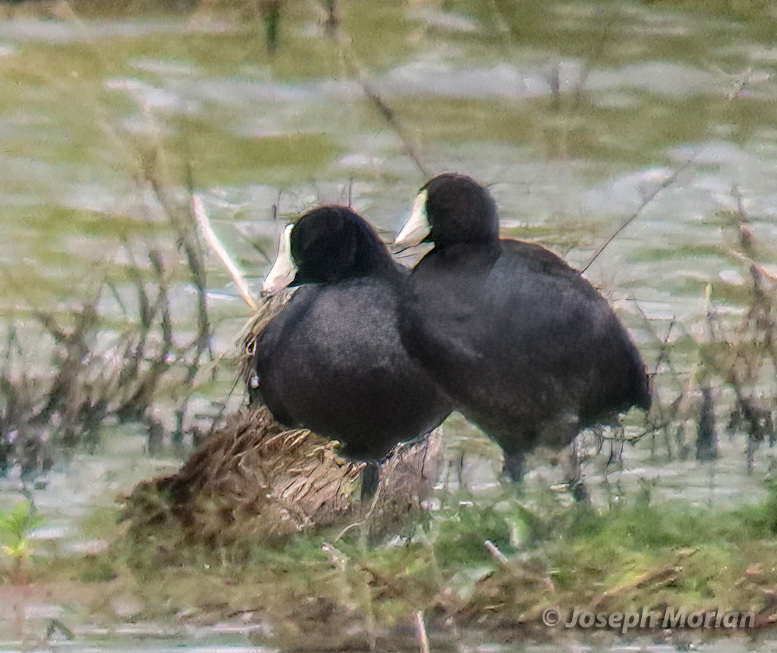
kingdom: Animalia
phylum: Chordata
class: Aves
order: Gruiformes
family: Rallidae
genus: Fulica
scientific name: Fulica americana
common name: American coot
